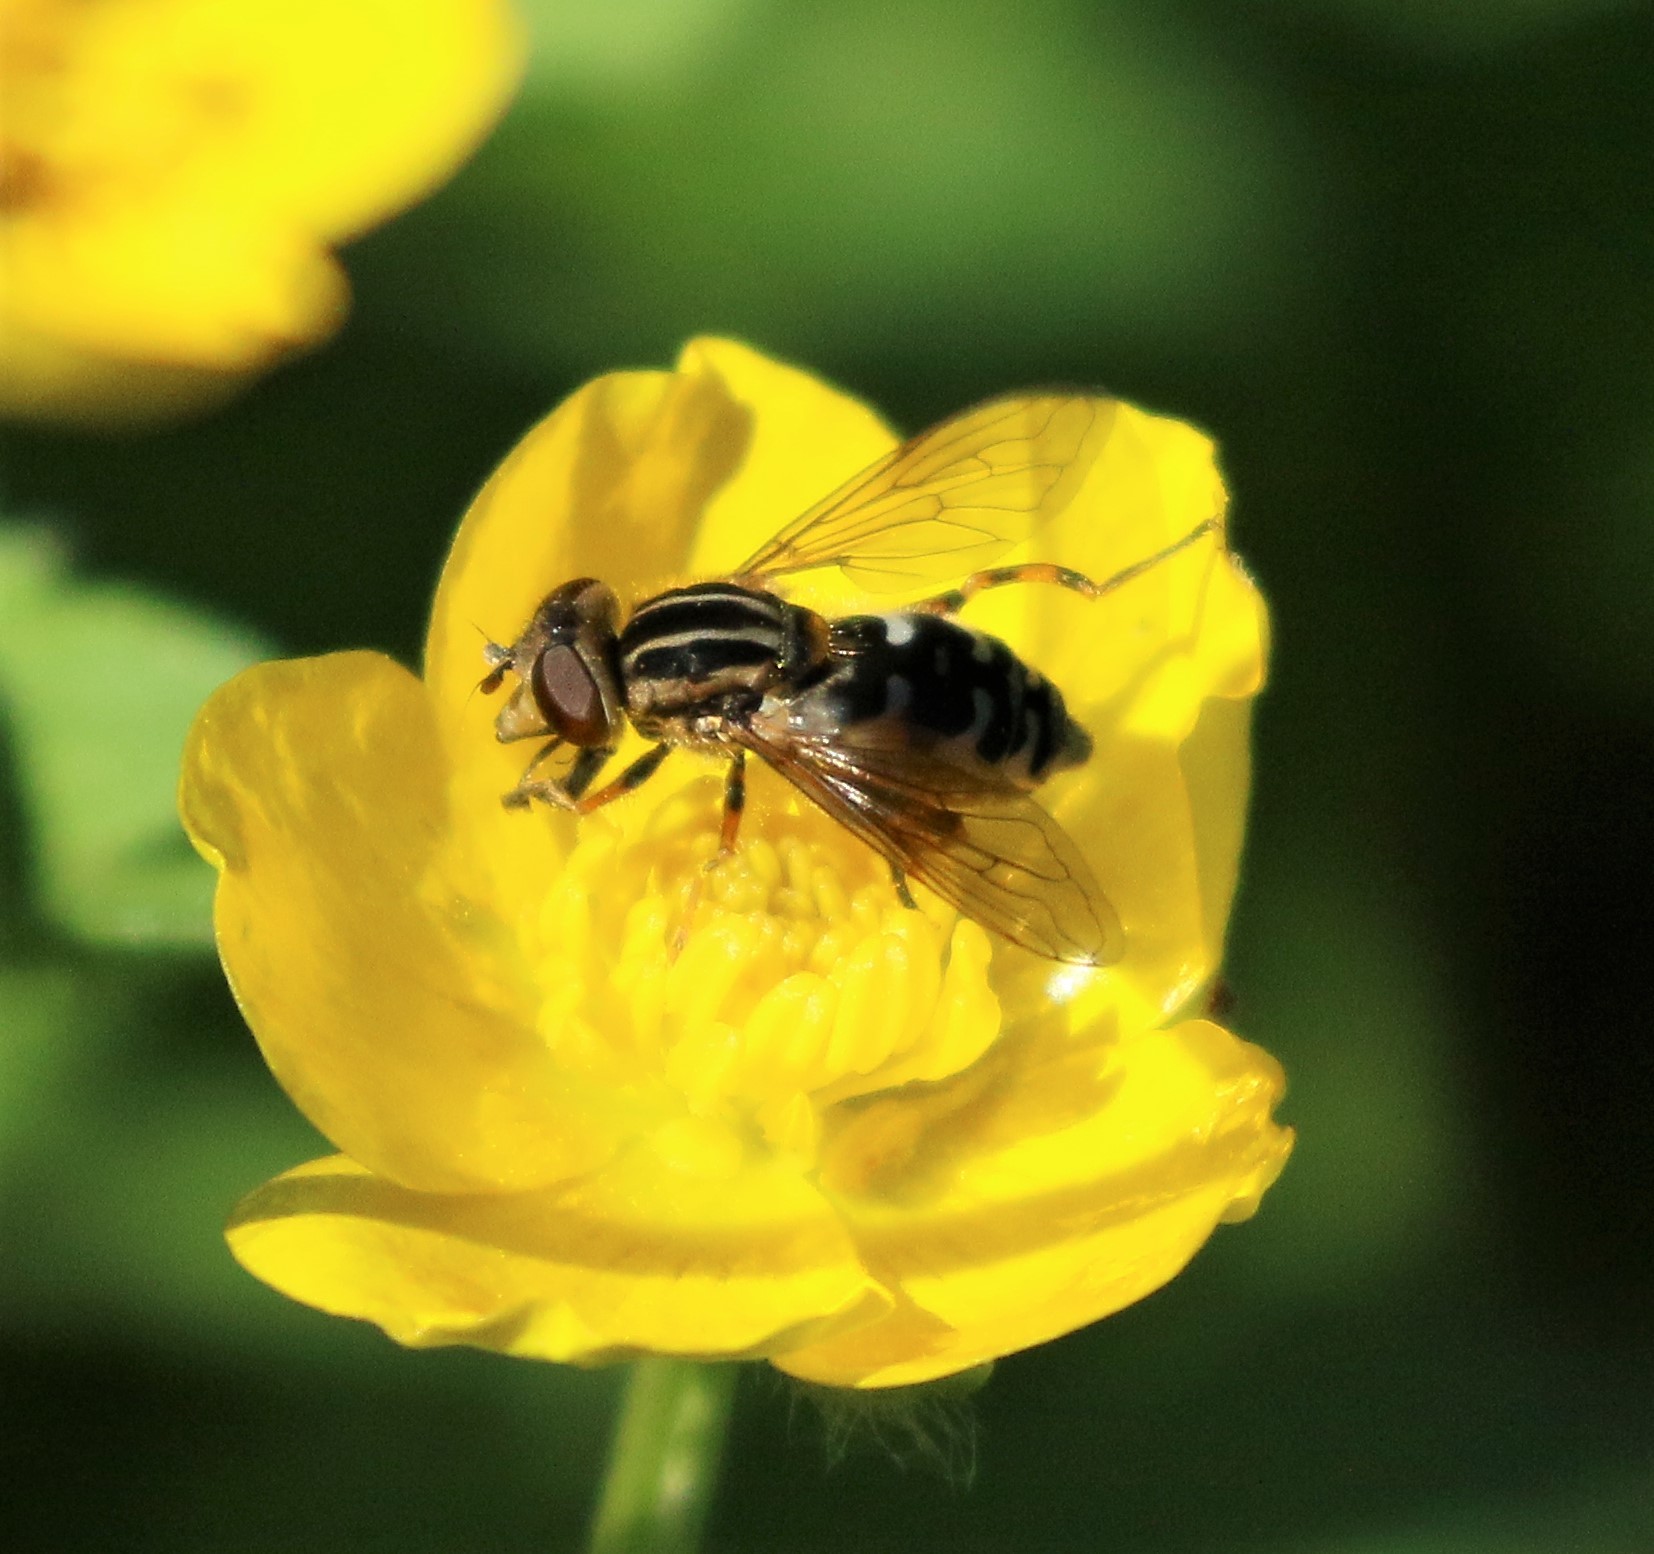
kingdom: Animalia
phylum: Arthropoda
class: Insecta
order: Diptera
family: Syrphidae
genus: Eurimyia
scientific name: Eurimyia stipatus
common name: Long-nosed swamp fly
